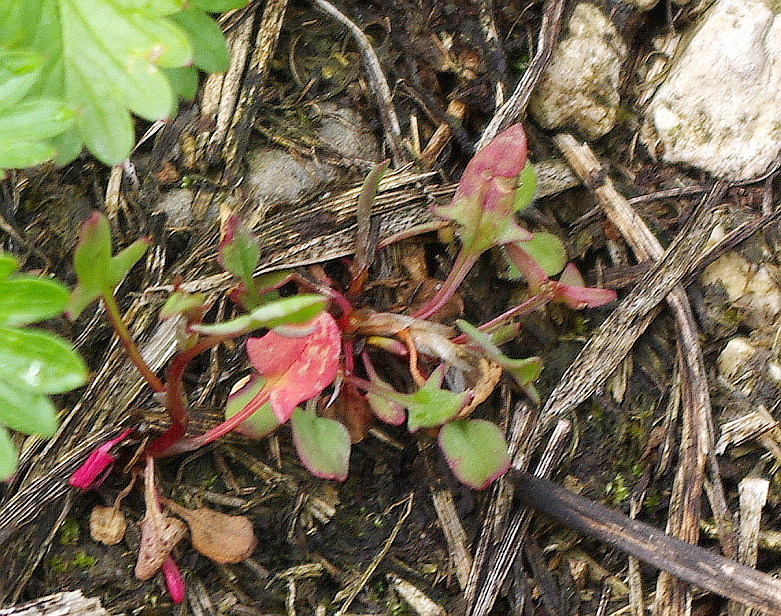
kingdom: Plantae
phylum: Tracheophyta
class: Magnoliopsida
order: Caryophyllales
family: Polygonaceae
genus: Rumex
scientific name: Rumex acetosella
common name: Common sheep sorrel
